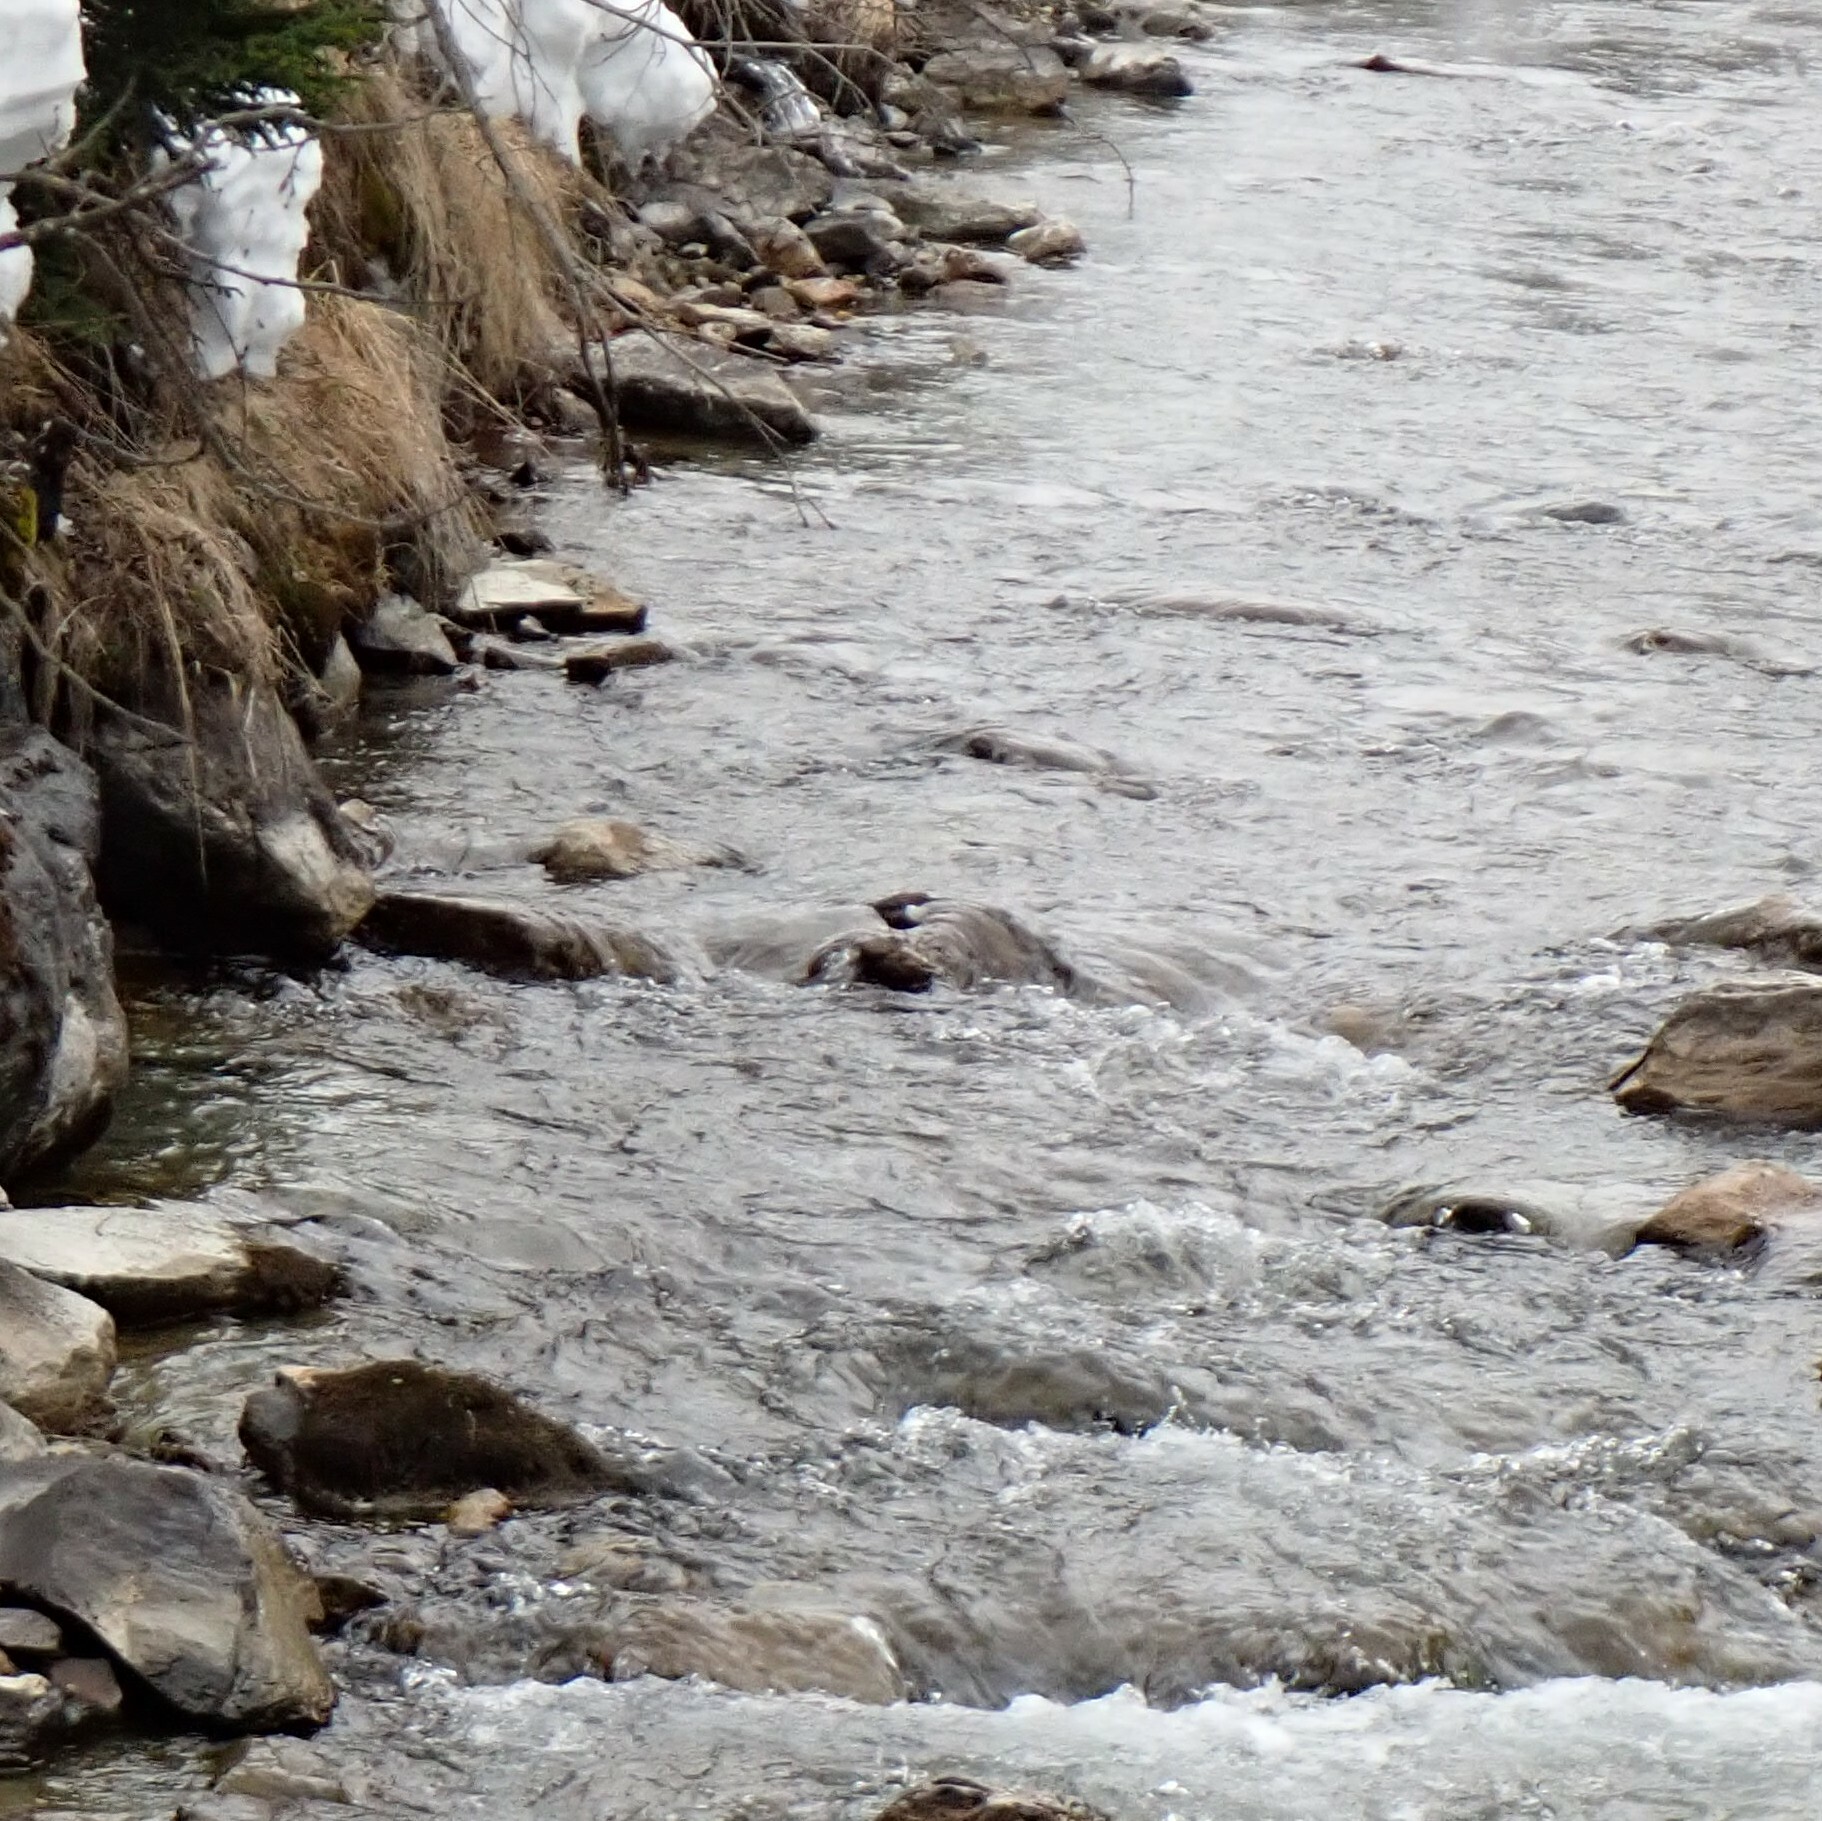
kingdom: Animalia
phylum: Chordata
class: Aves
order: Passeriformes
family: Cinclidae
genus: Cinclus
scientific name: Cinclus cinclus
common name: White-throated dipper
